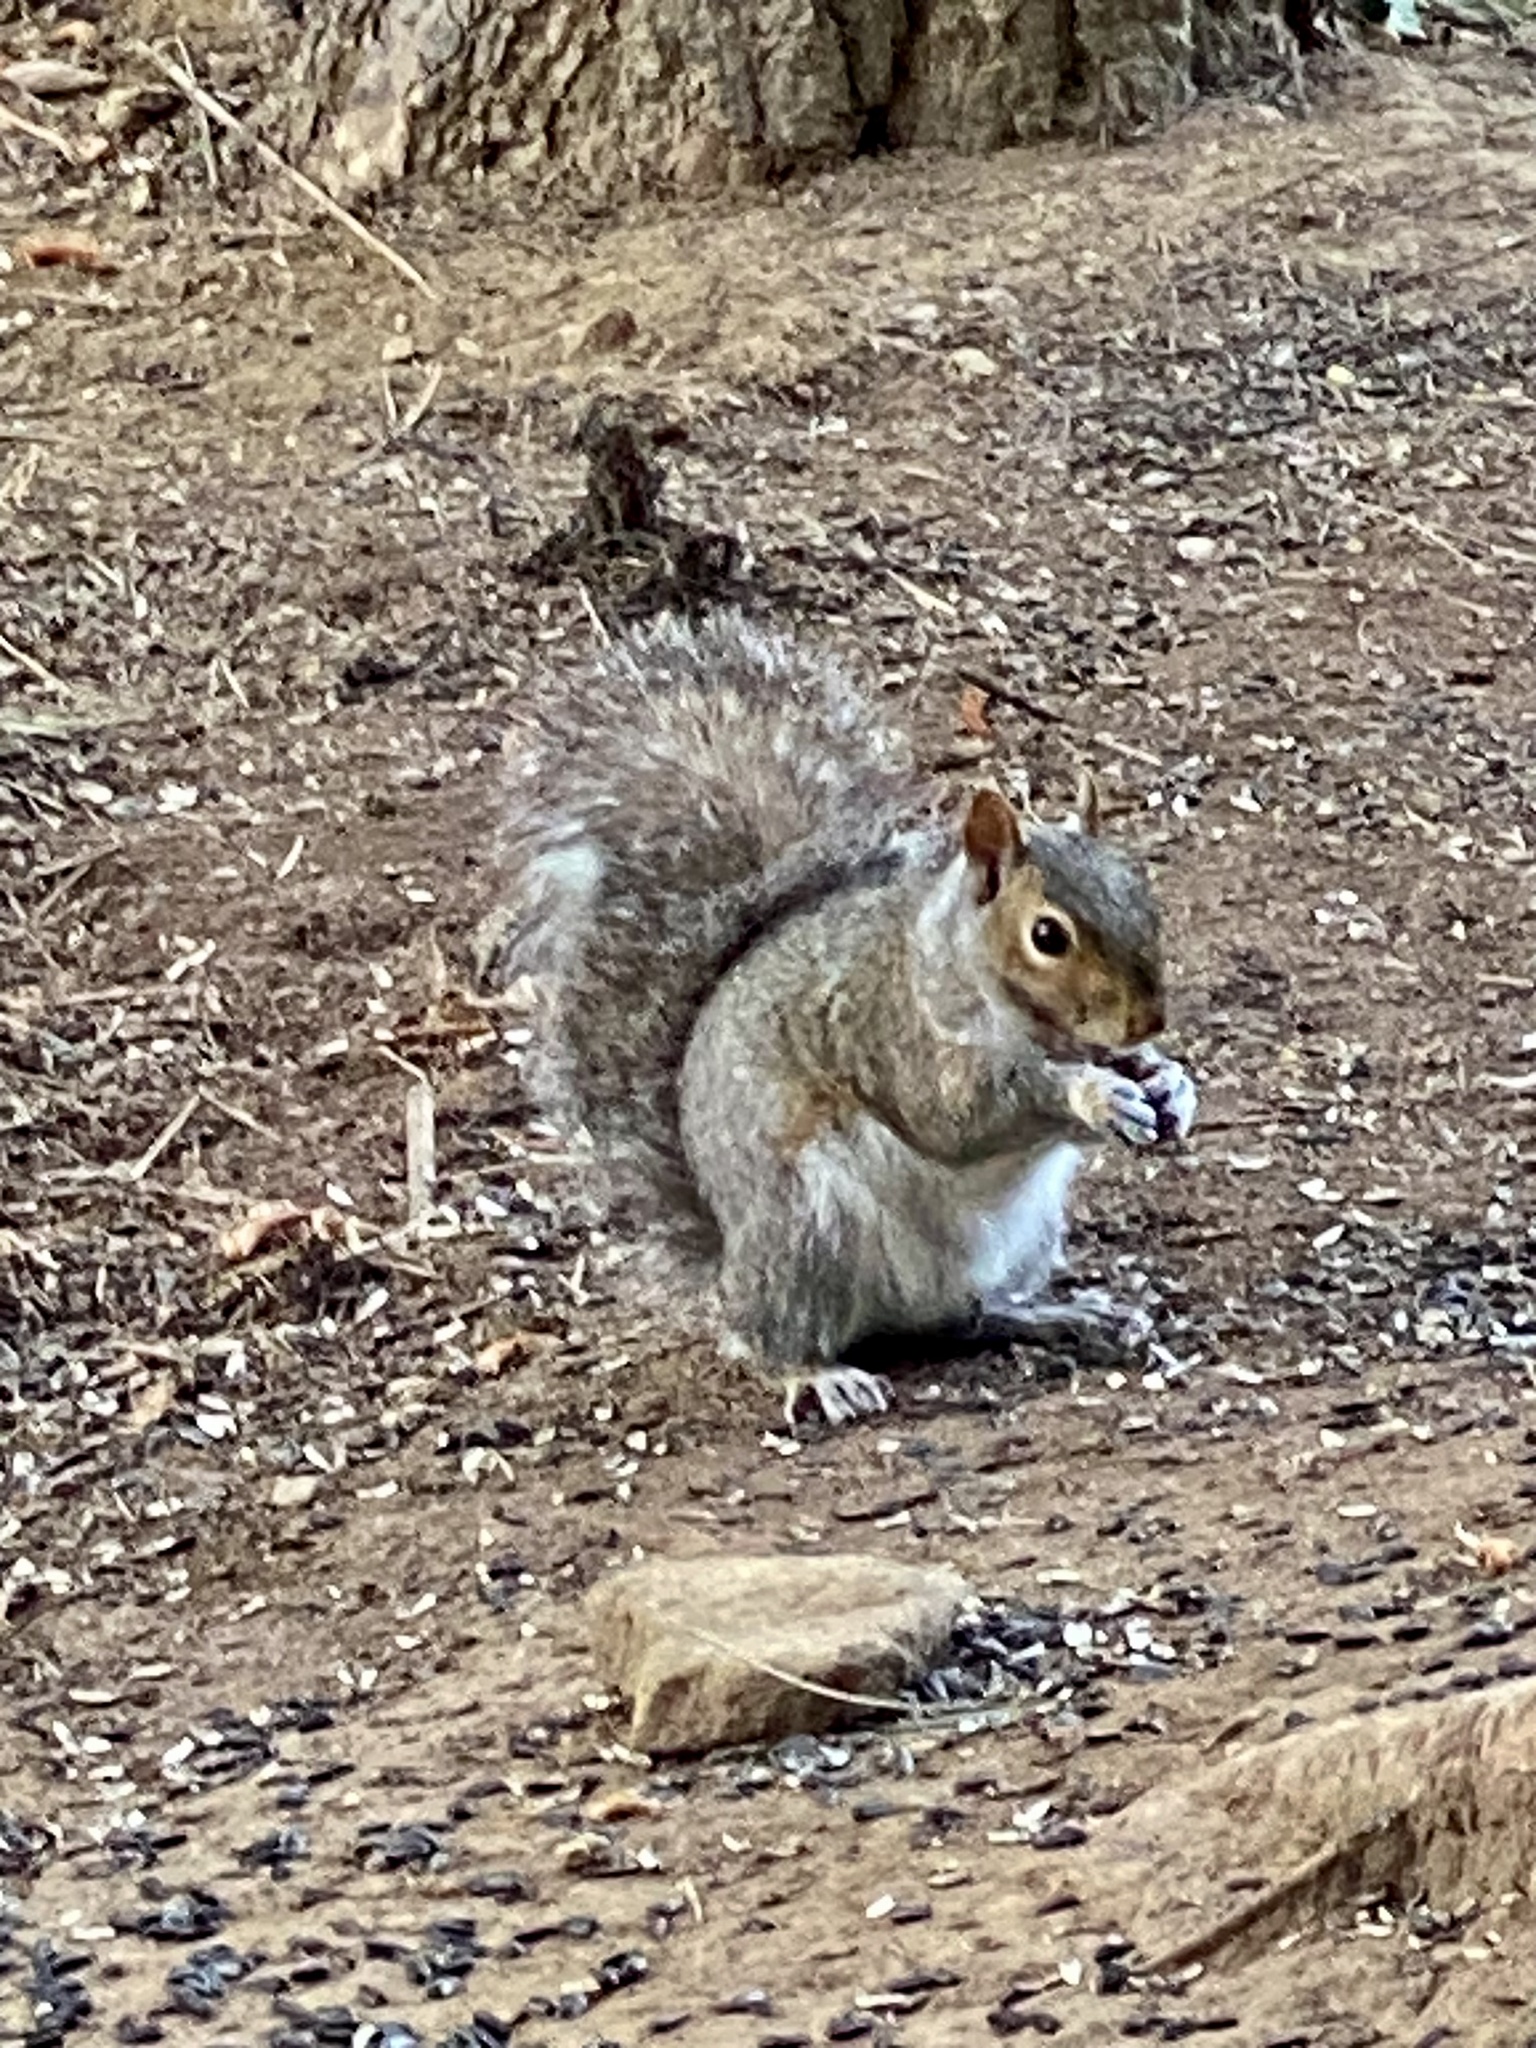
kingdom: Animalia
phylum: Chordata
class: Mammalia
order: Rodentia
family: Sciuridae
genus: Sciurus
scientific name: Sciurus carolinensis
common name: Eastern gray squirrel
